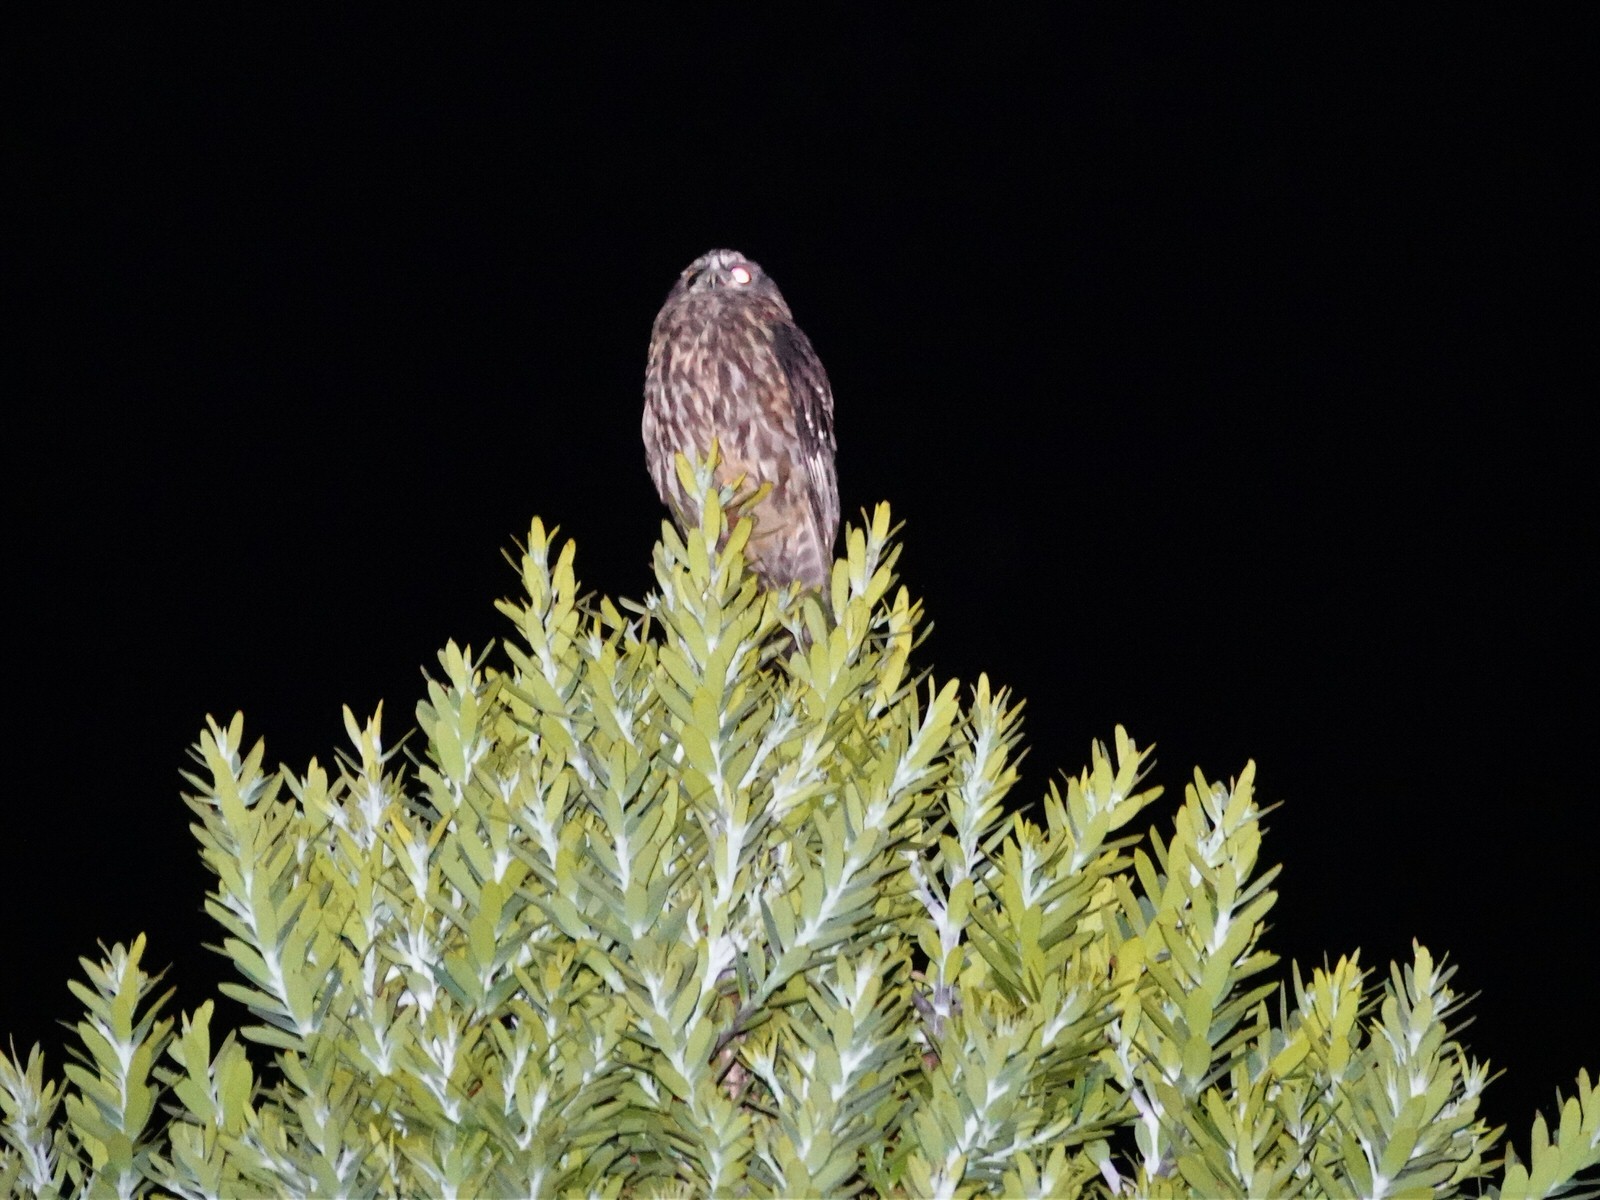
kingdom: Animalia
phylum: Chordata
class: Aves
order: Strigiformes
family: Strigidae
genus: Ninox
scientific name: Ninox novaeseelandiae
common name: Morepork
